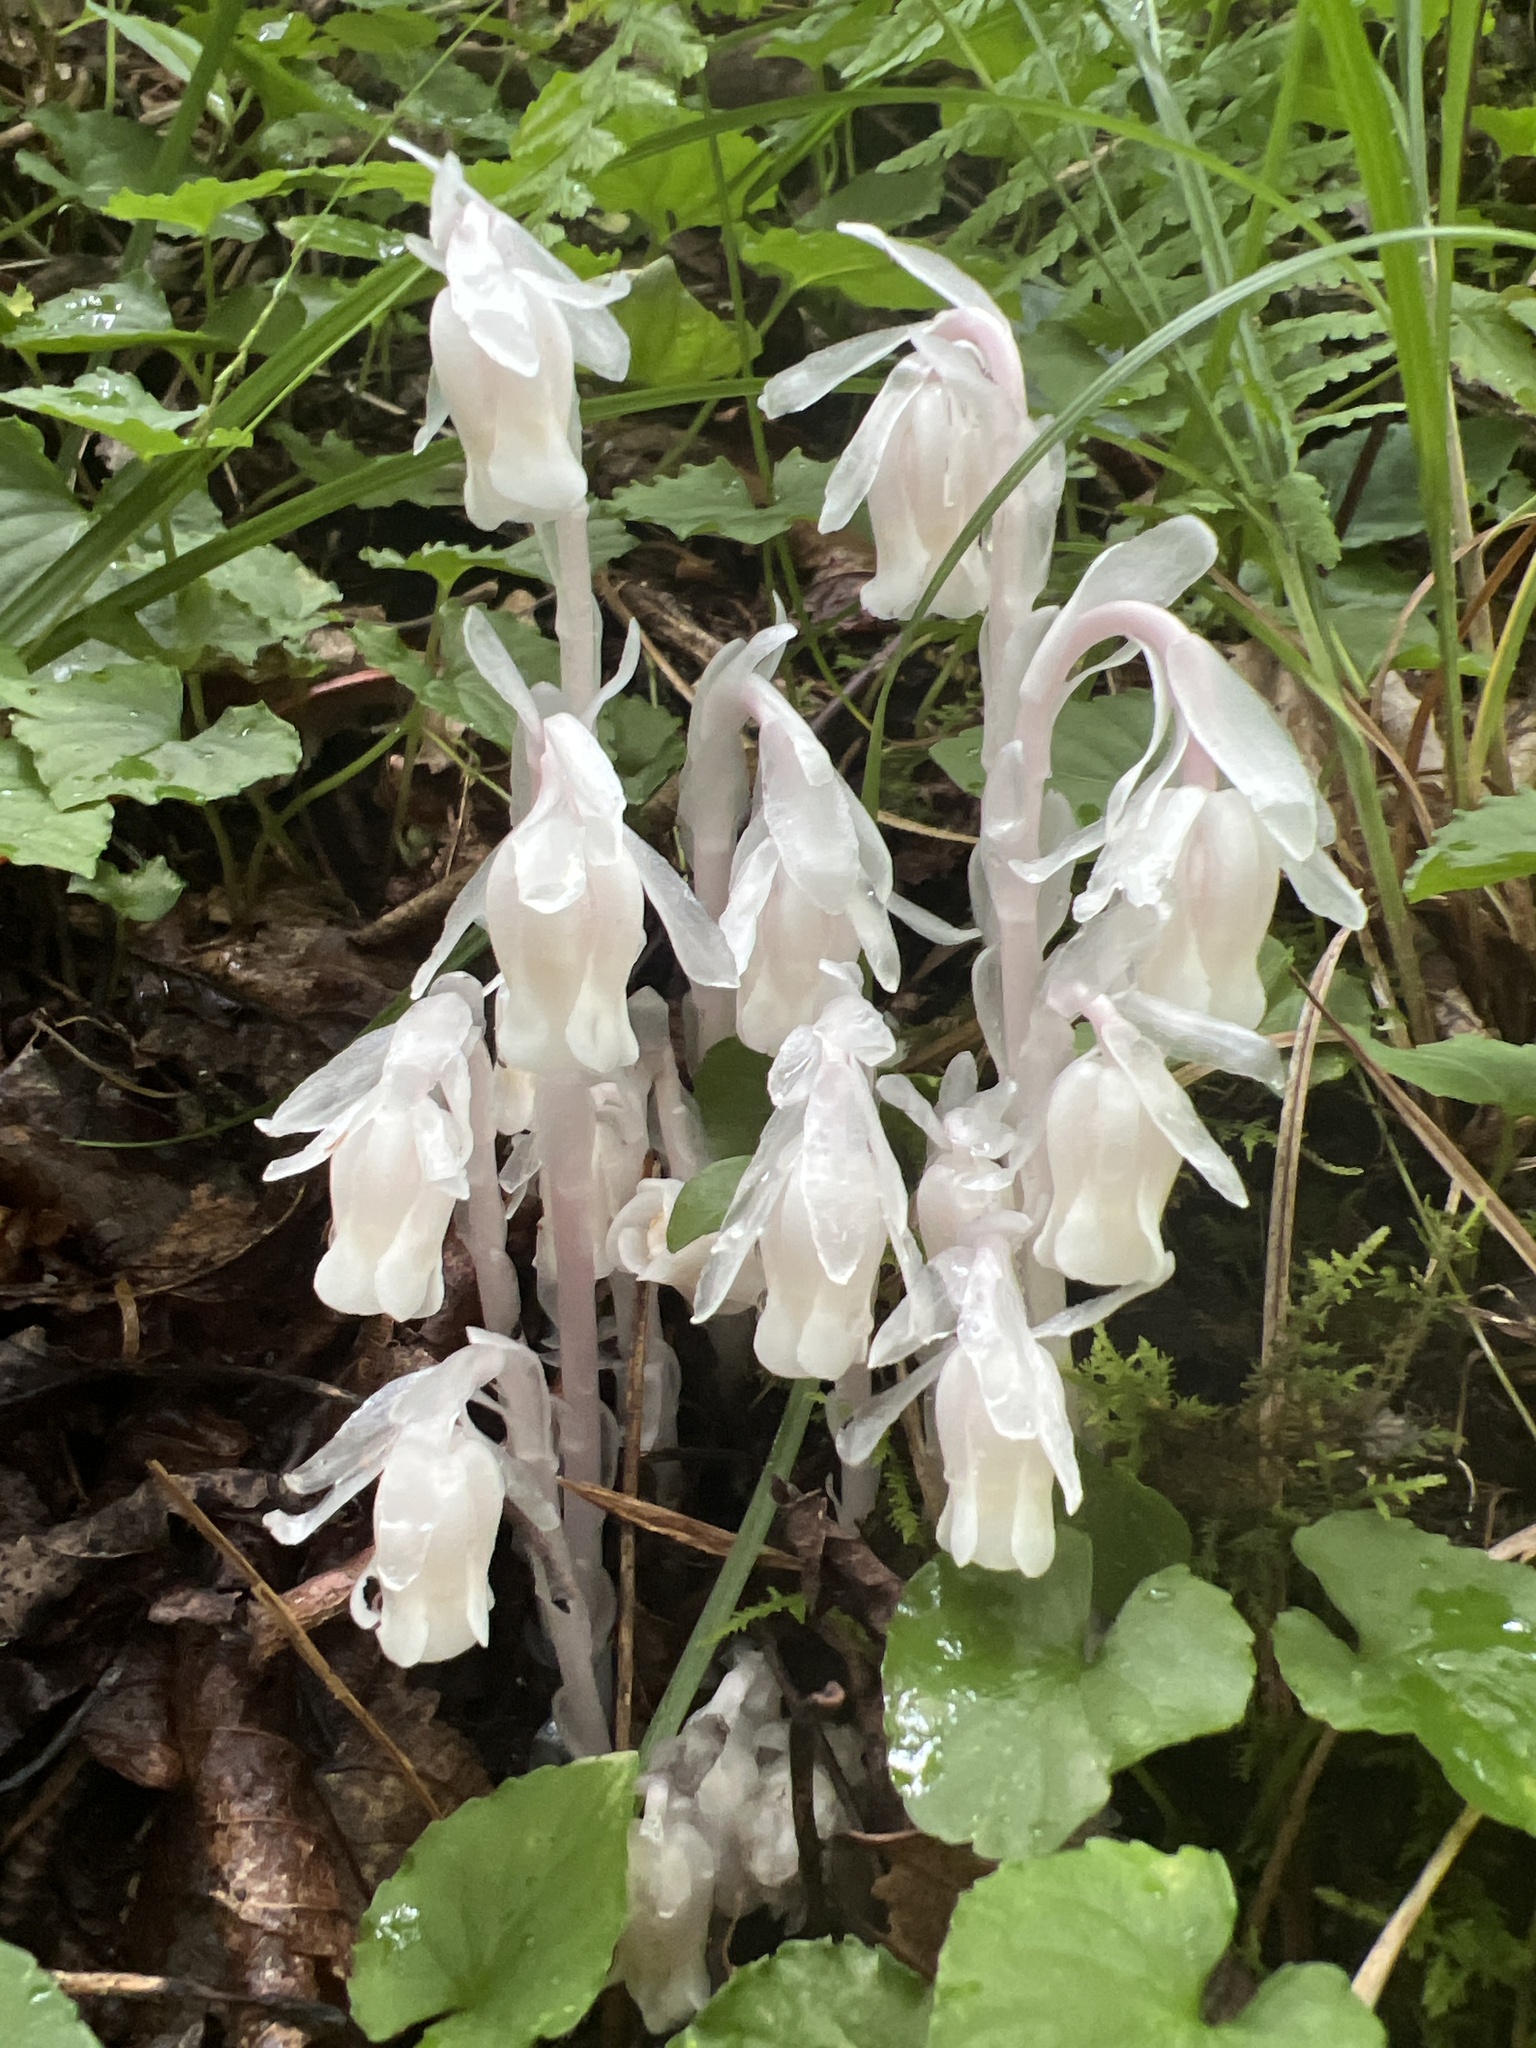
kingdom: Plantae
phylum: Tracheophyta
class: Magnoliopsida
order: Ericales
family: Ericaceae
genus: Monotropa
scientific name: Monotropa uniflora
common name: Convulsion root
